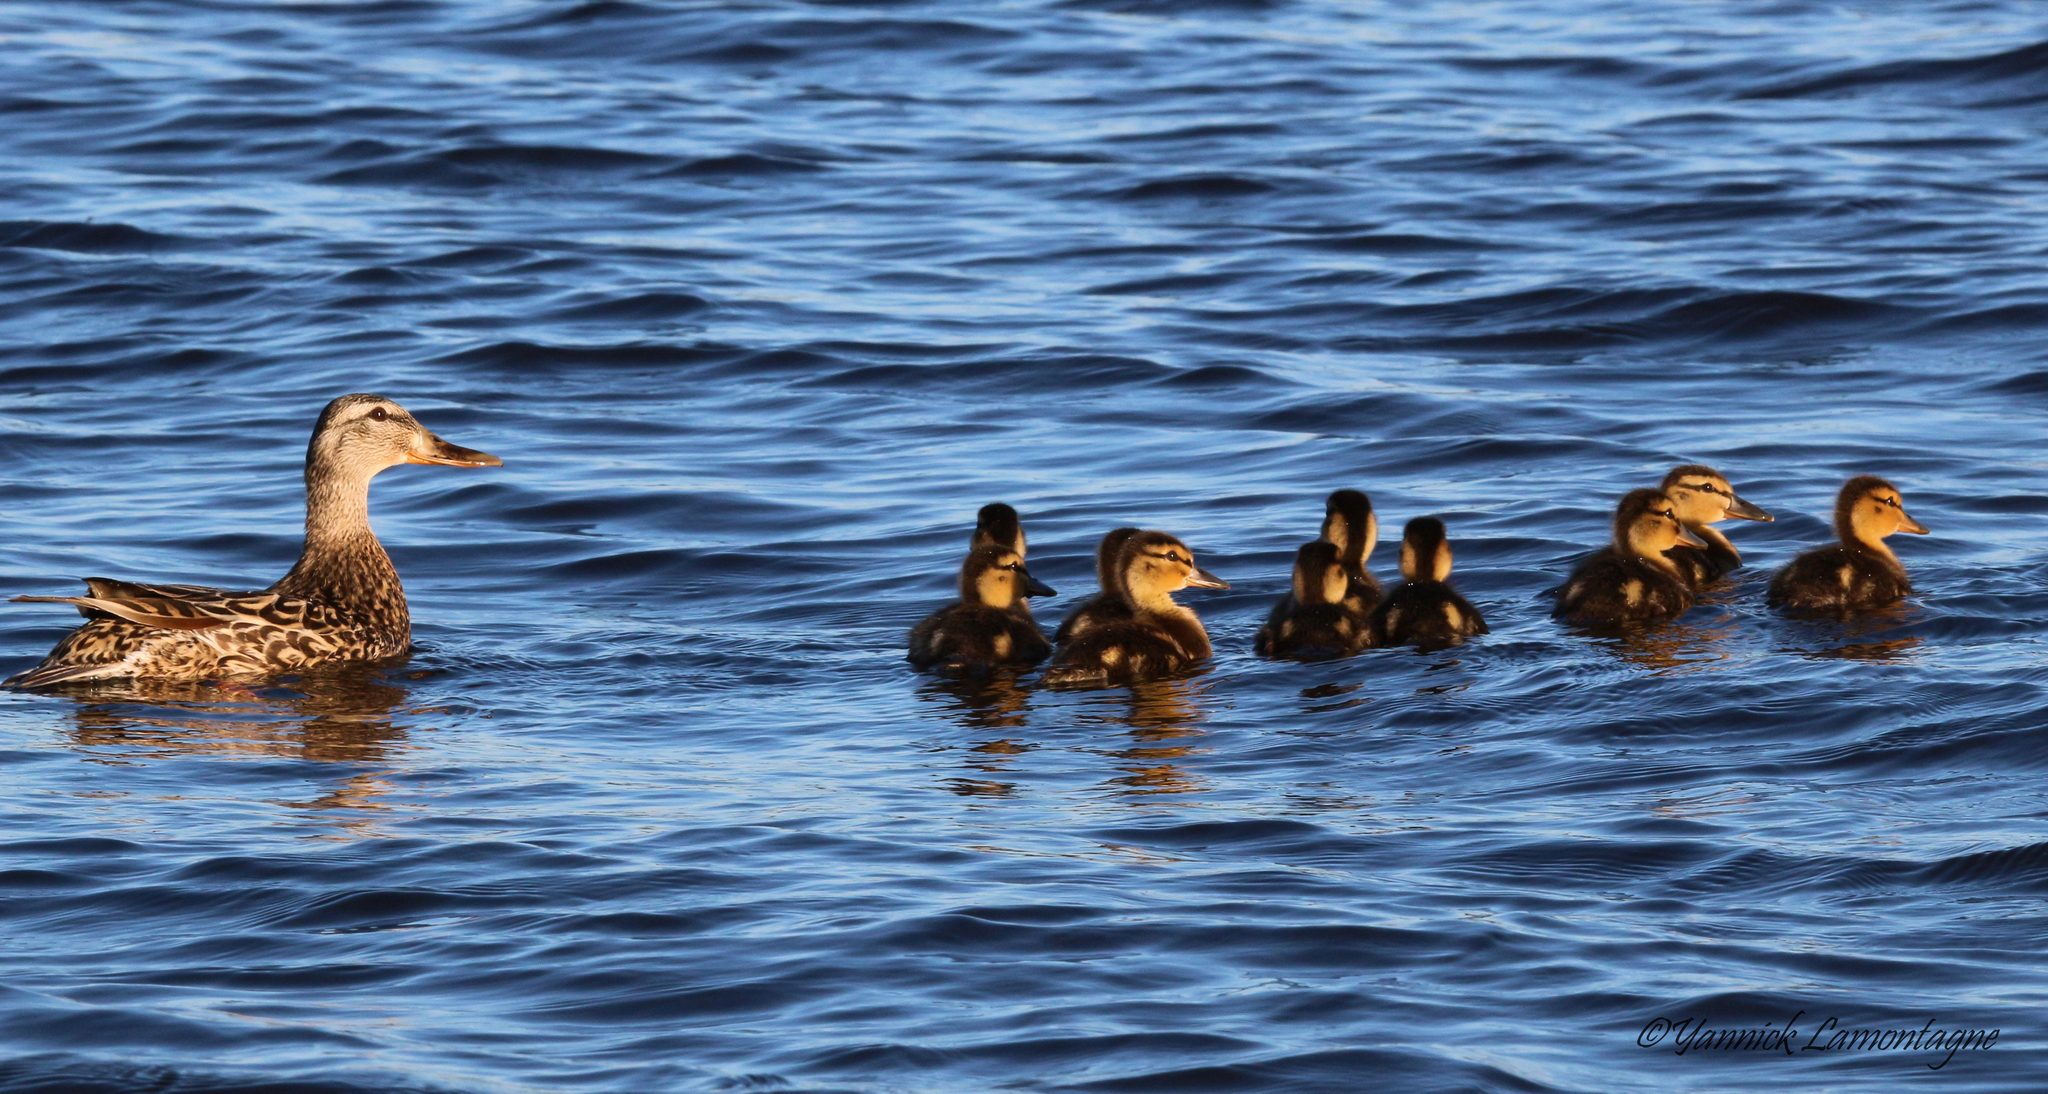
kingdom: Animalia
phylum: Chordata
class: Aves
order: Anseriformes
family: Anatidae
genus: Anas
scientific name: Anas platyrhynchos
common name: Mallard
